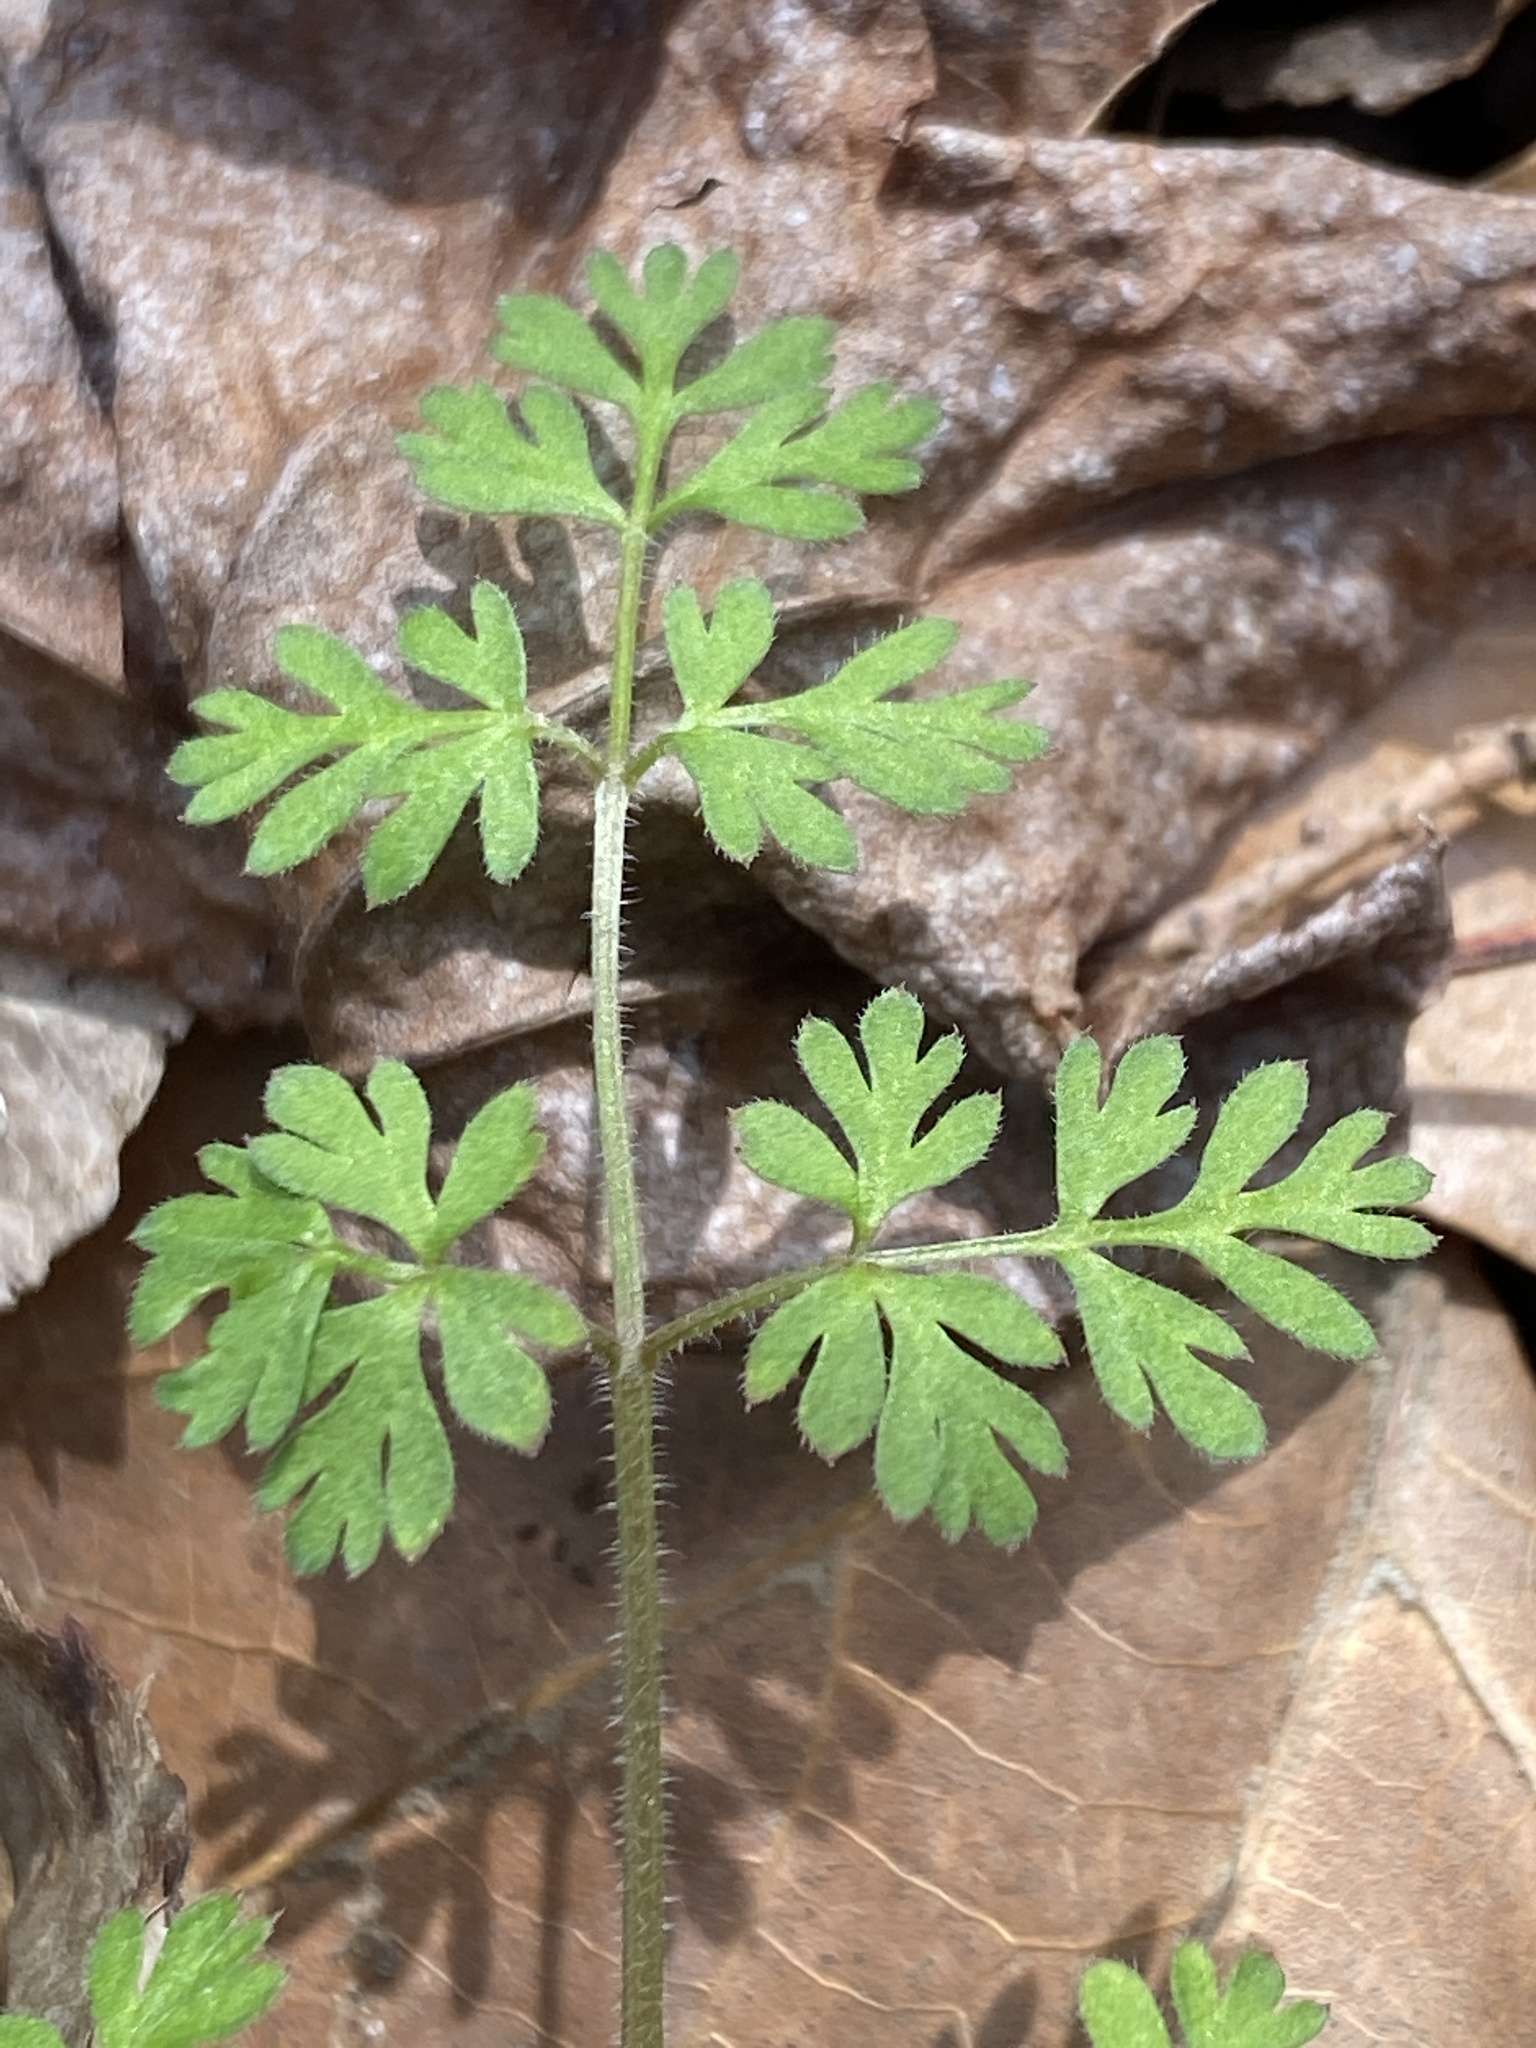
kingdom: Plantae
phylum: Tracheophyta
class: Magnoliopsida
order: Apiales
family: Apiaceae
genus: Chaerophyllum
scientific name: Chaerophyllum tainturieri
